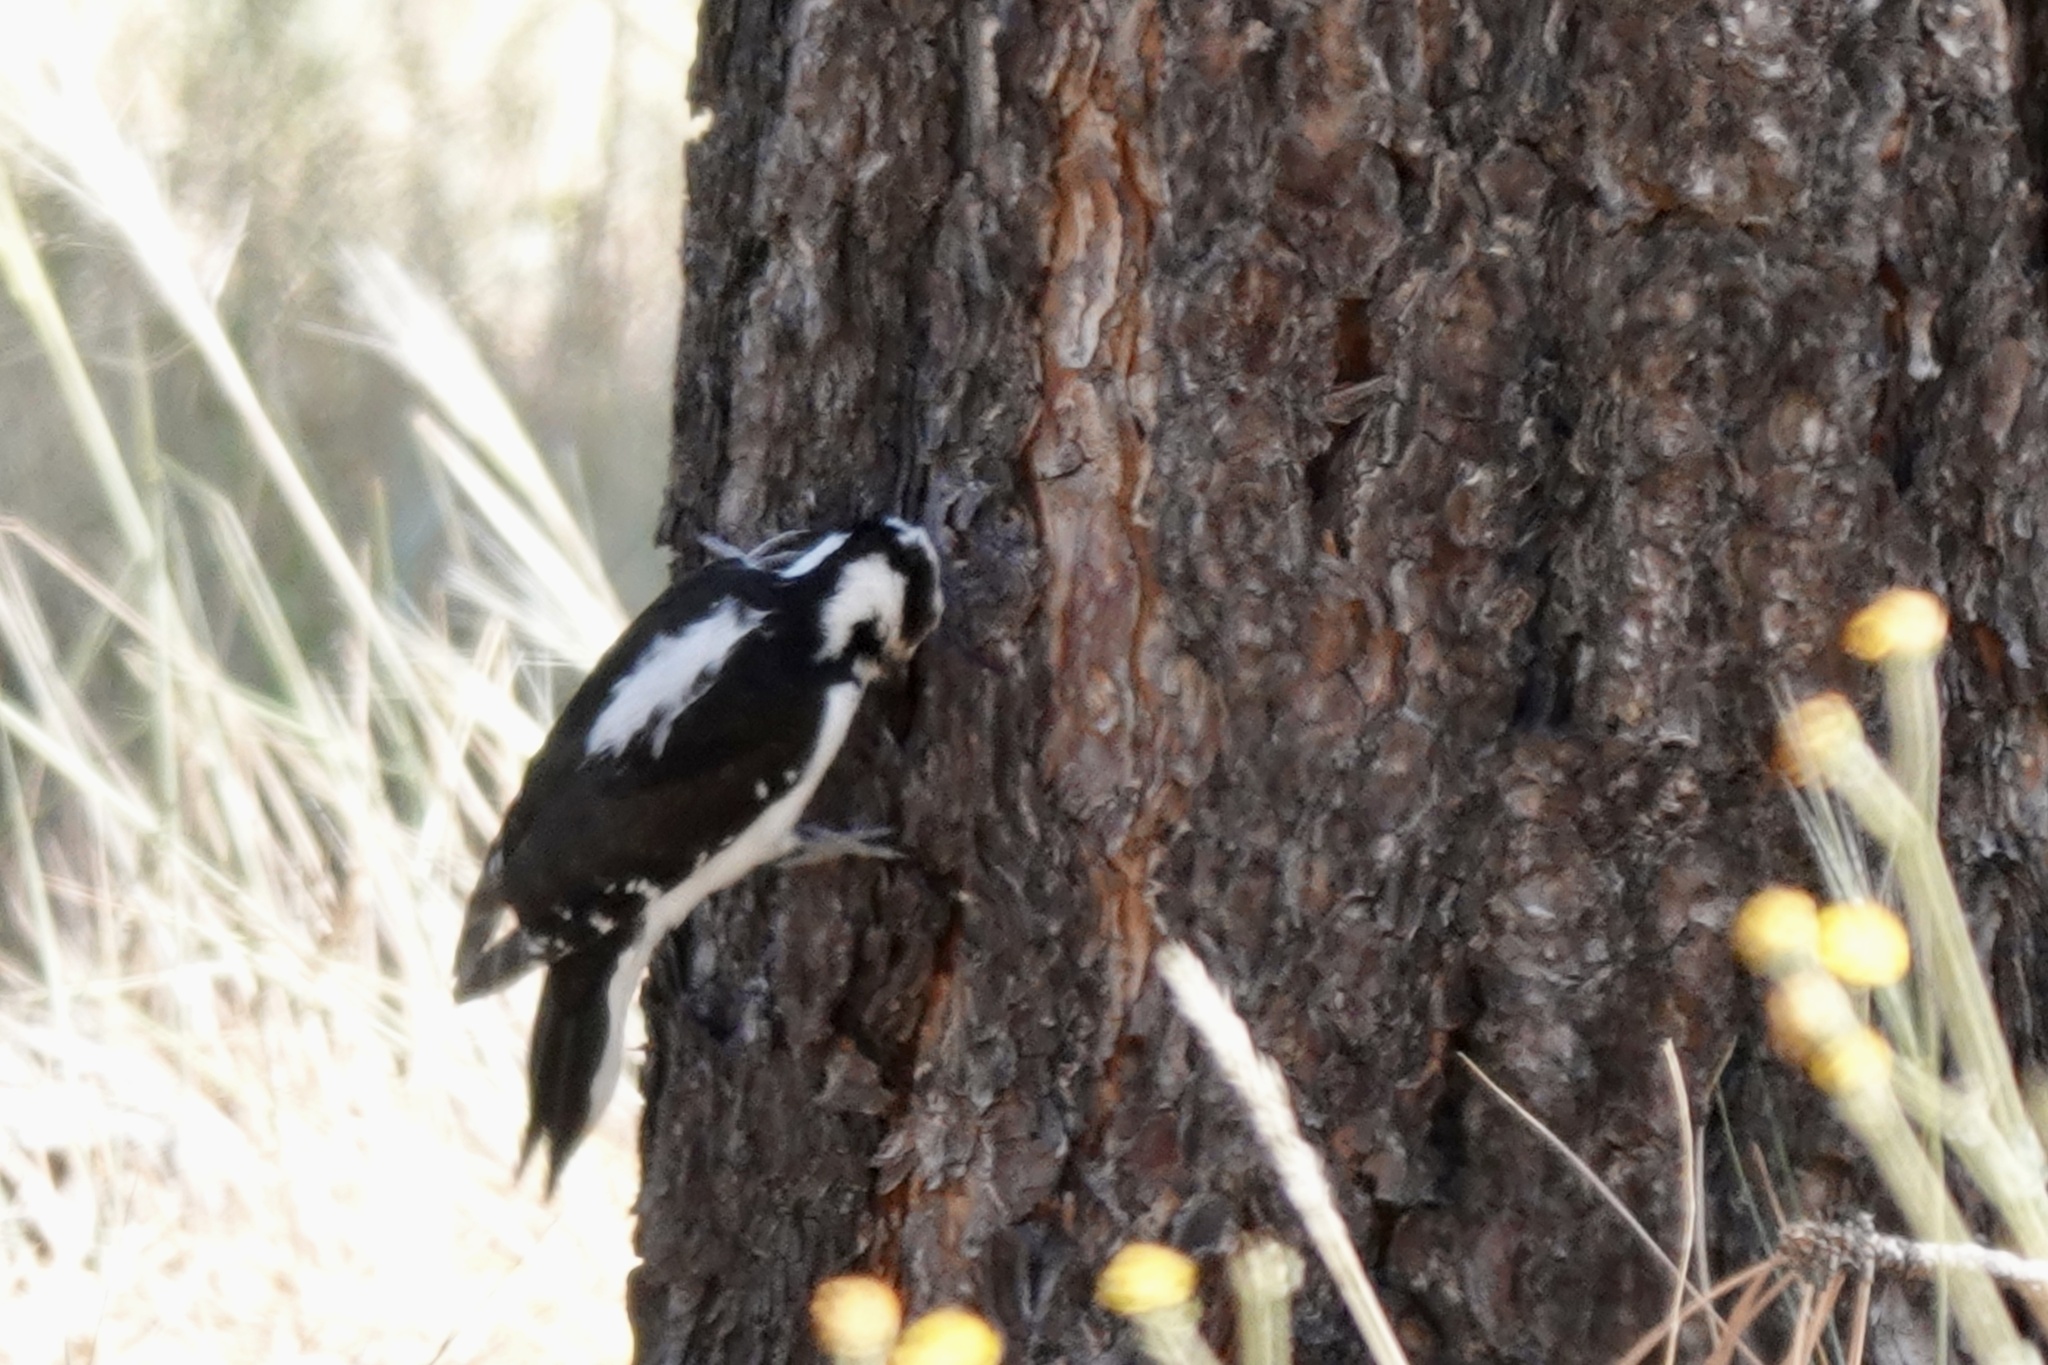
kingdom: Animalia
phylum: Chordata
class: Aves
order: Piciformes
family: Picidae
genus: Leuconotopicus
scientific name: Leuconotopicus villosus
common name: Hairy woodpecker
